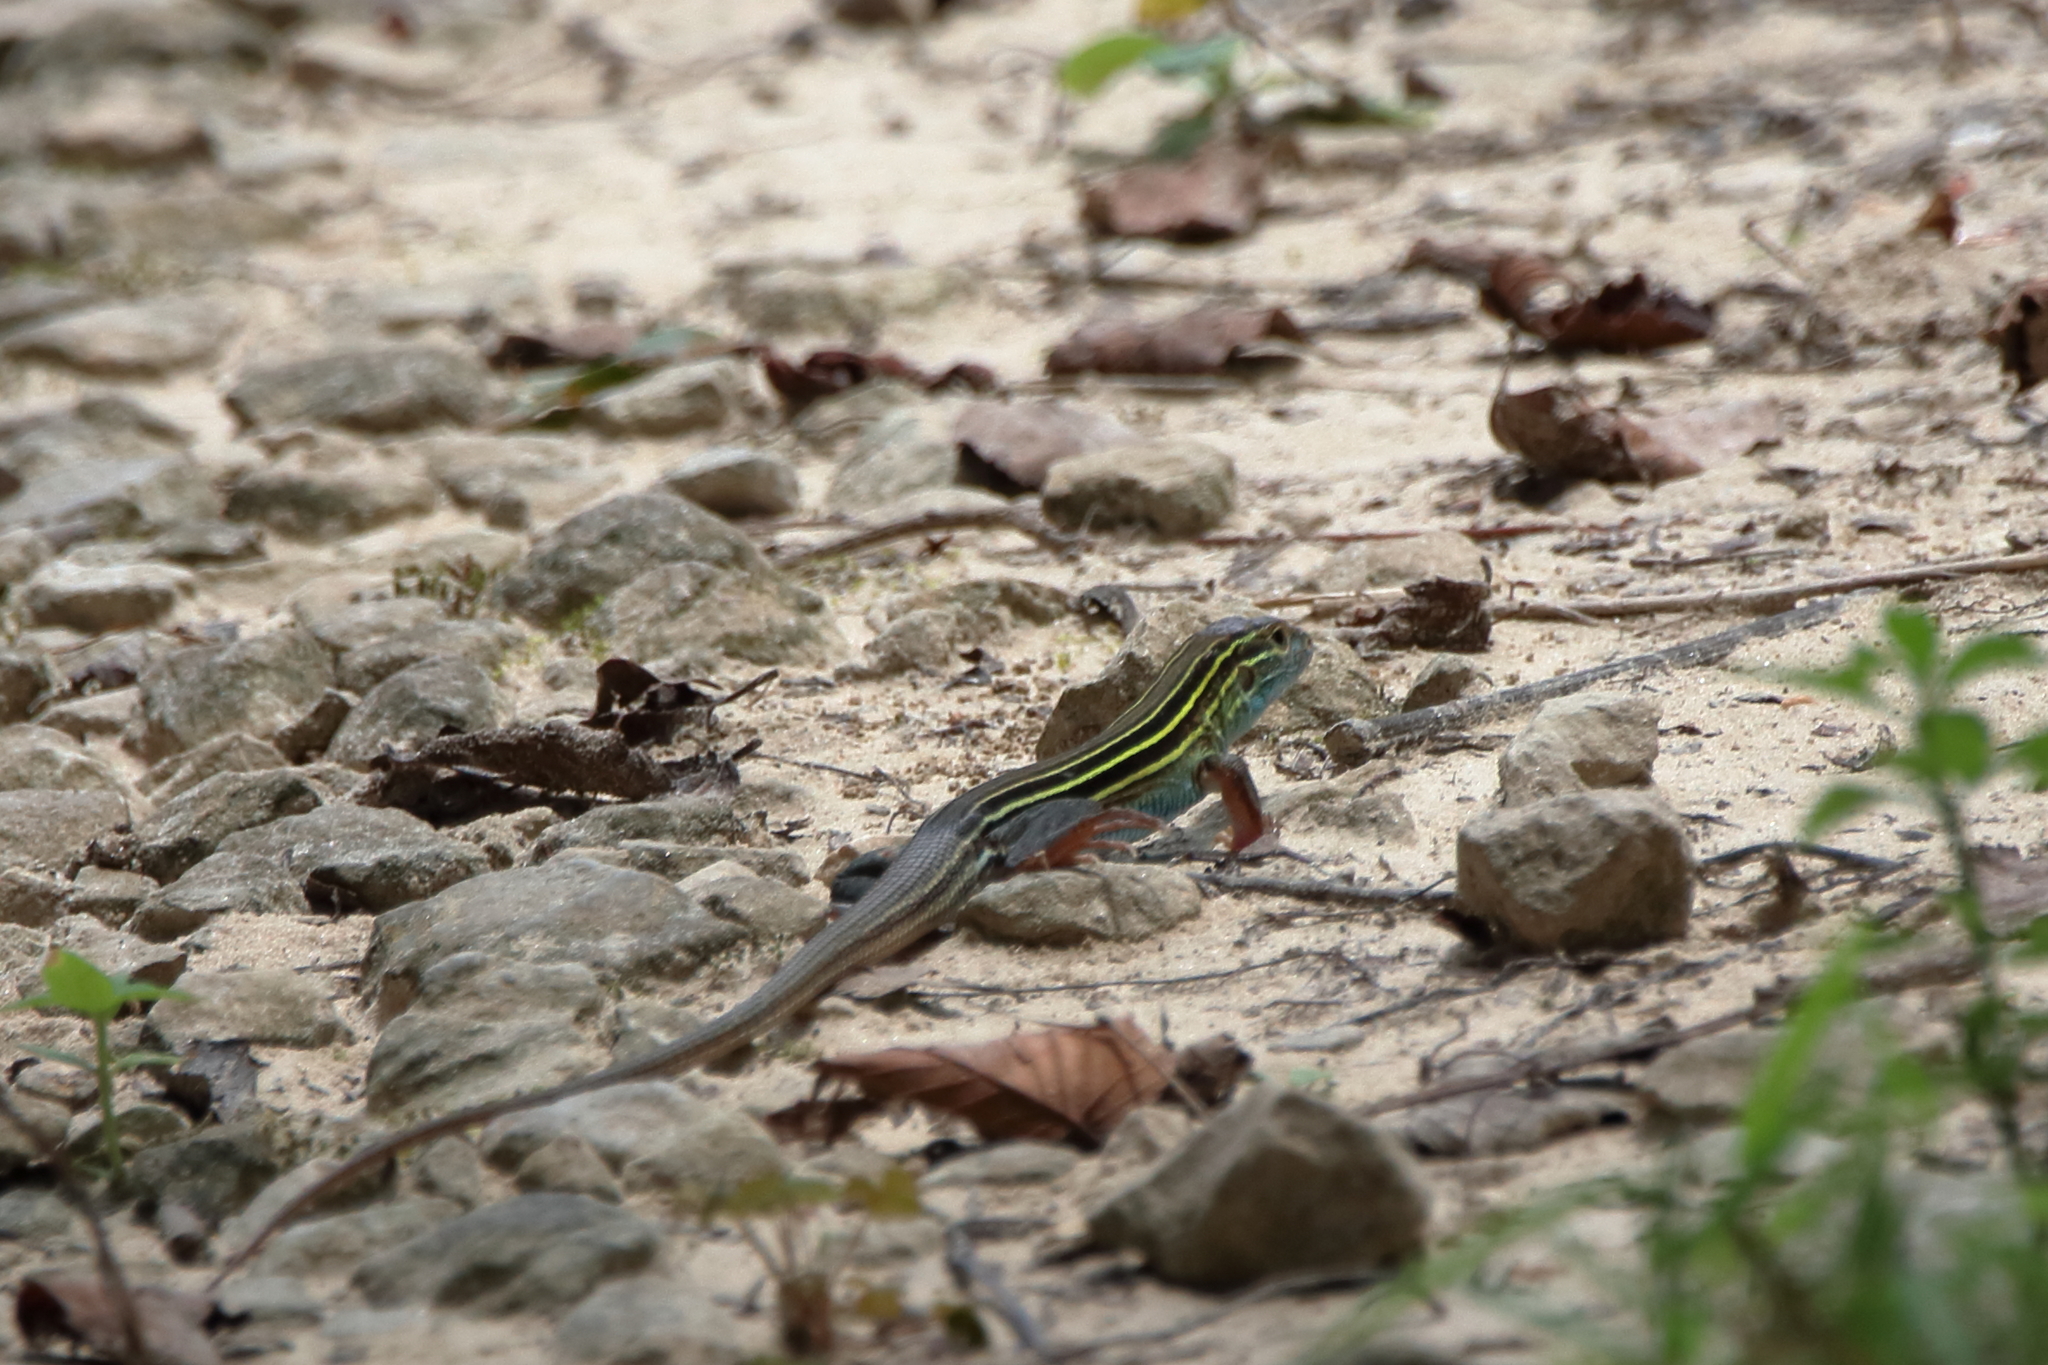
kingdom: Animalia
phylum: Chordata
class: Squamata
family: Teiidae
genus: Aspidoscelis
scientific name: Aspidoscelis sexlineatus
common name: Six-lined racerunner
